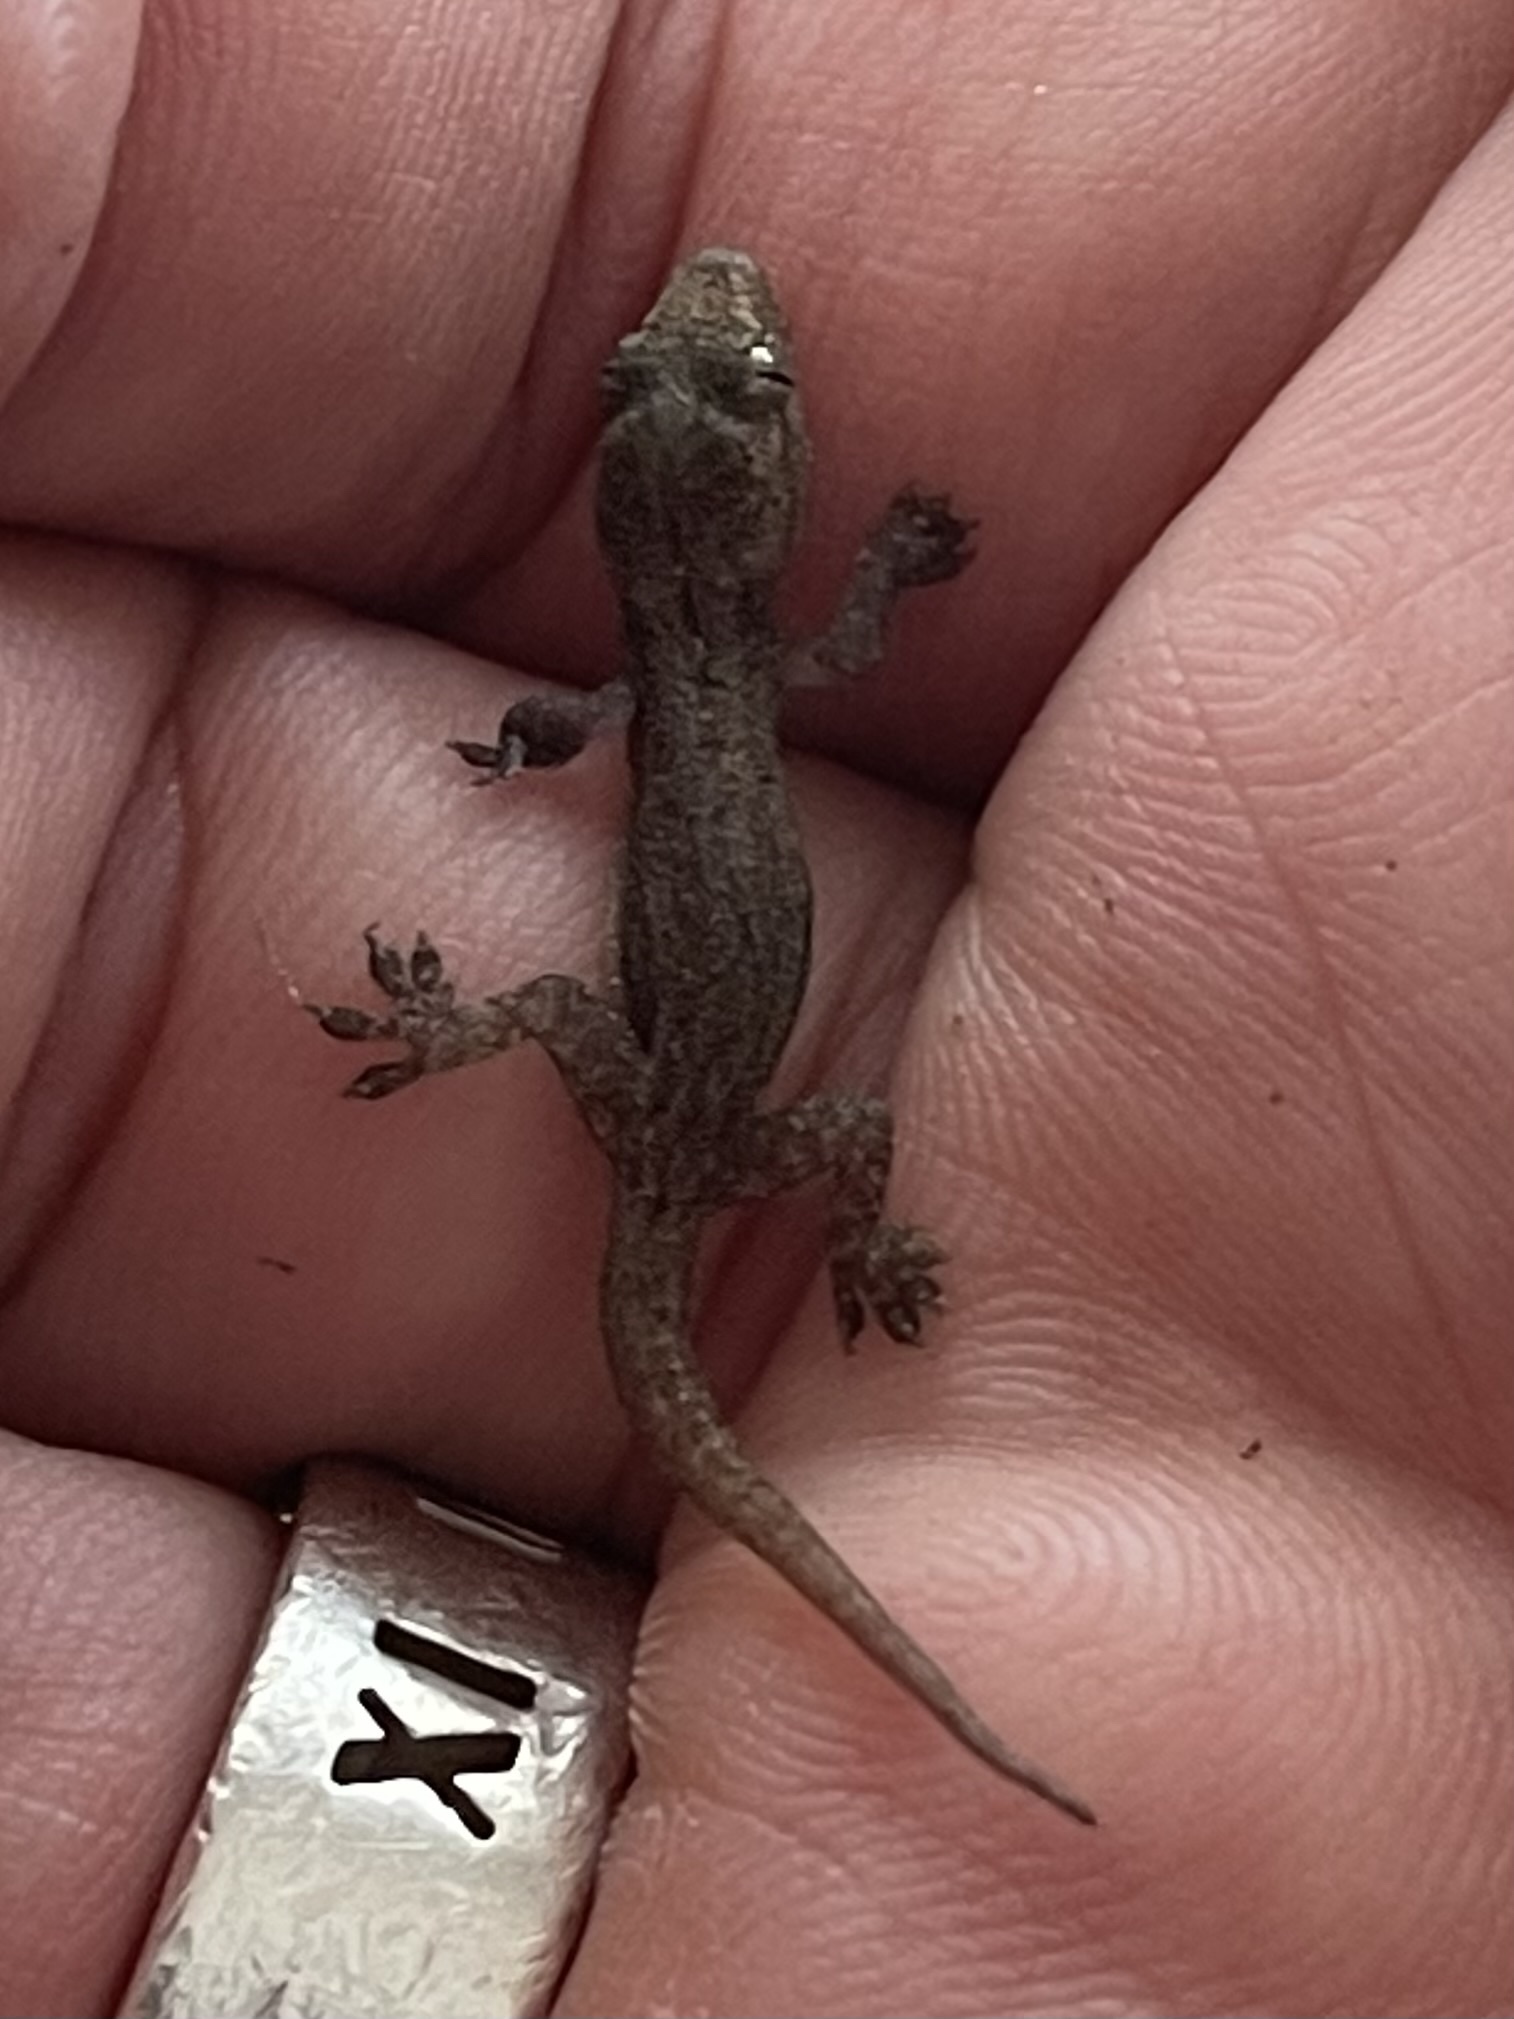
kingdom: Animalia
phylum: Chordata
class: Squamata
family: Gekkonidae
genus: Hemidactylus
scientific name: Hemidactylus frenatus
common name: Common house gecko
